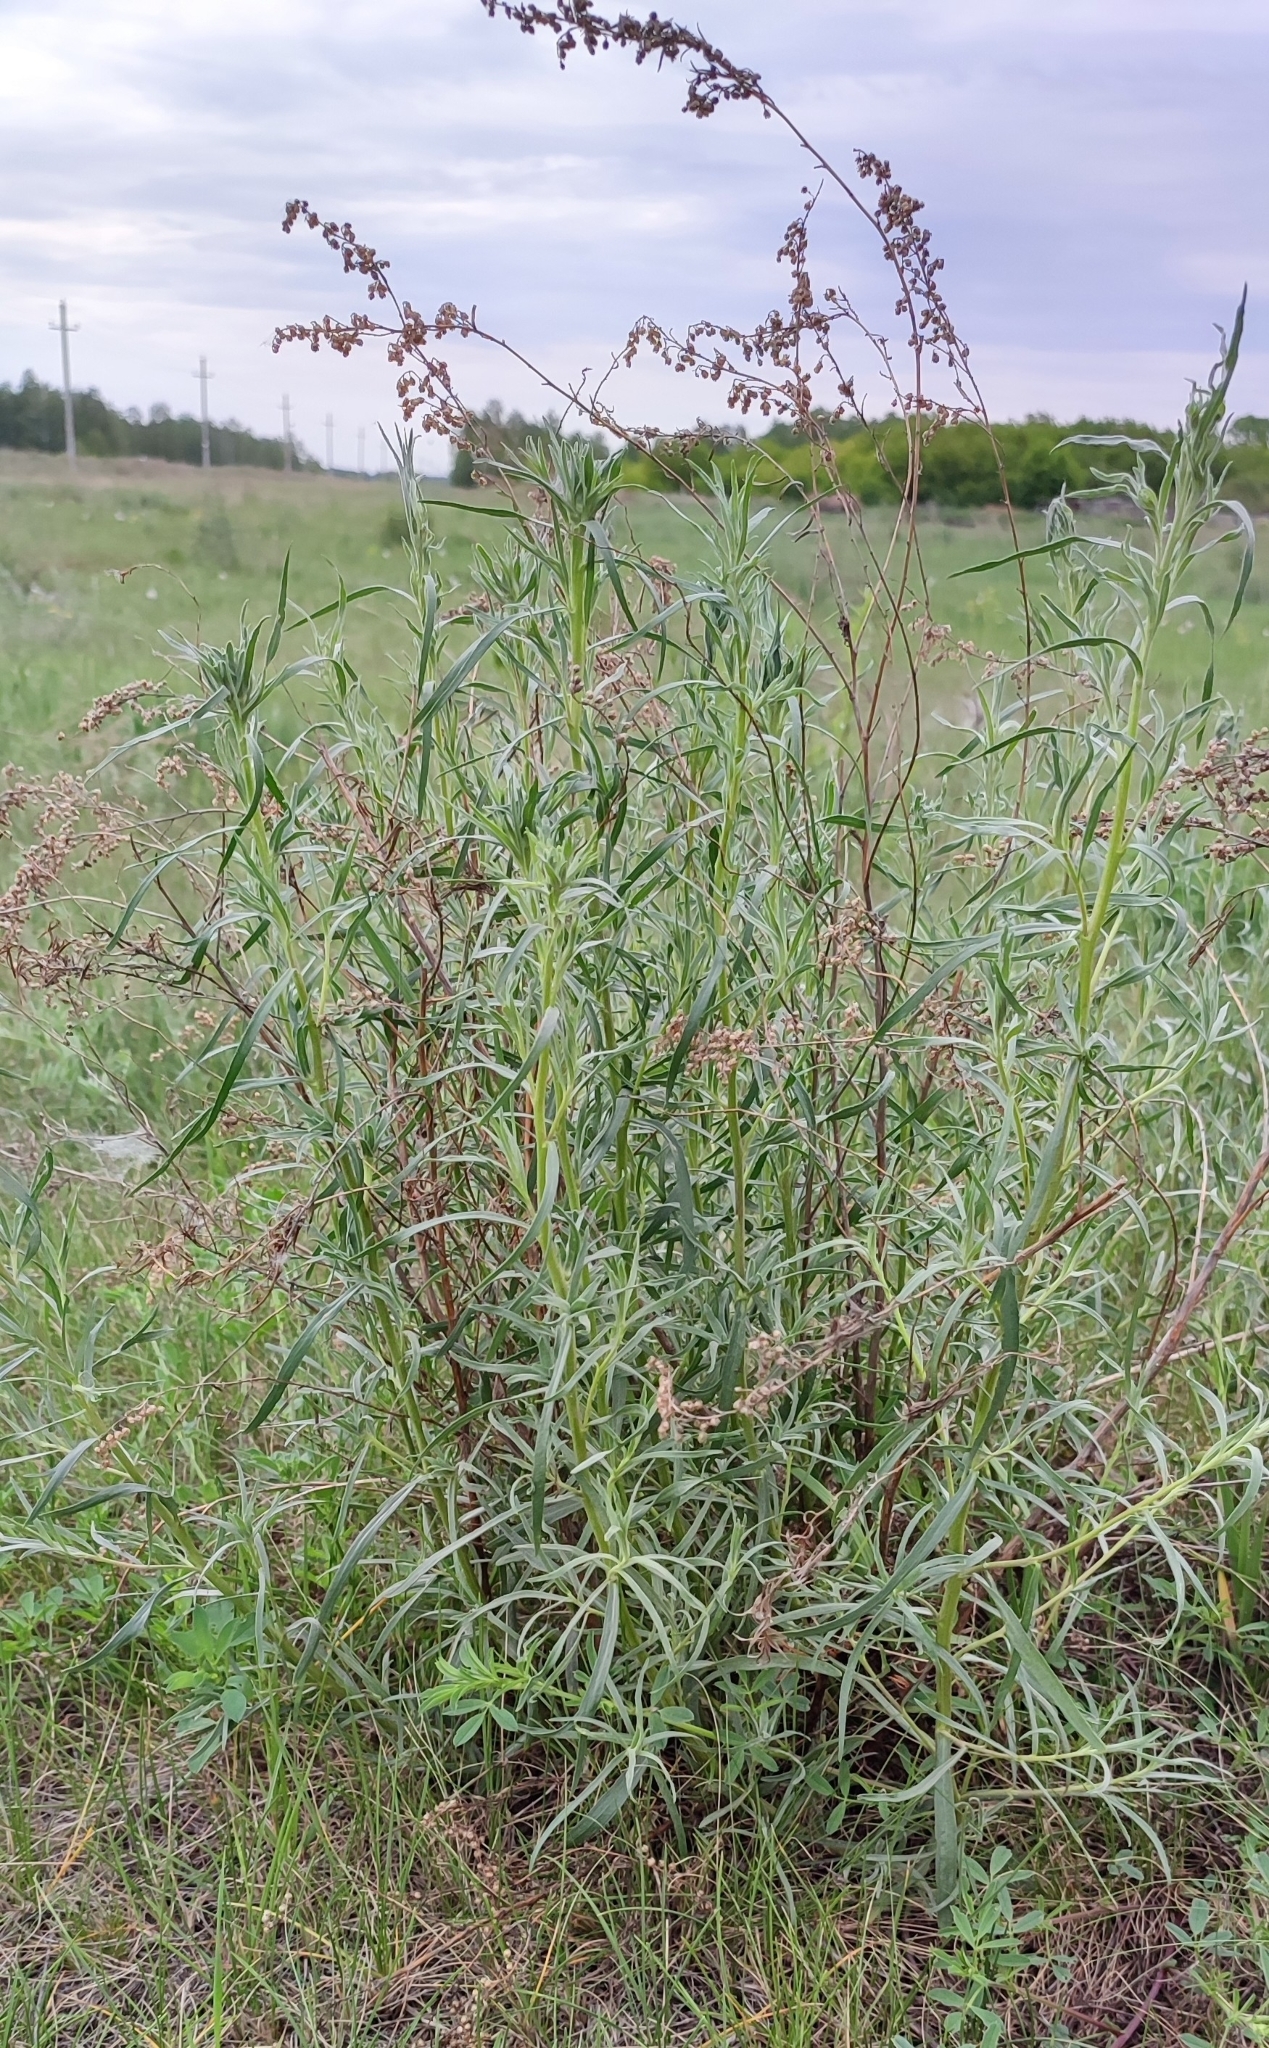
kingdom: Plantae
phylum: Tracheophyta
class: Magnoliopsida
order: Asterales
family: Asteraceae
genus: Artemisia
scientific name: Artemisia dracunculus
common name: Tarragon
